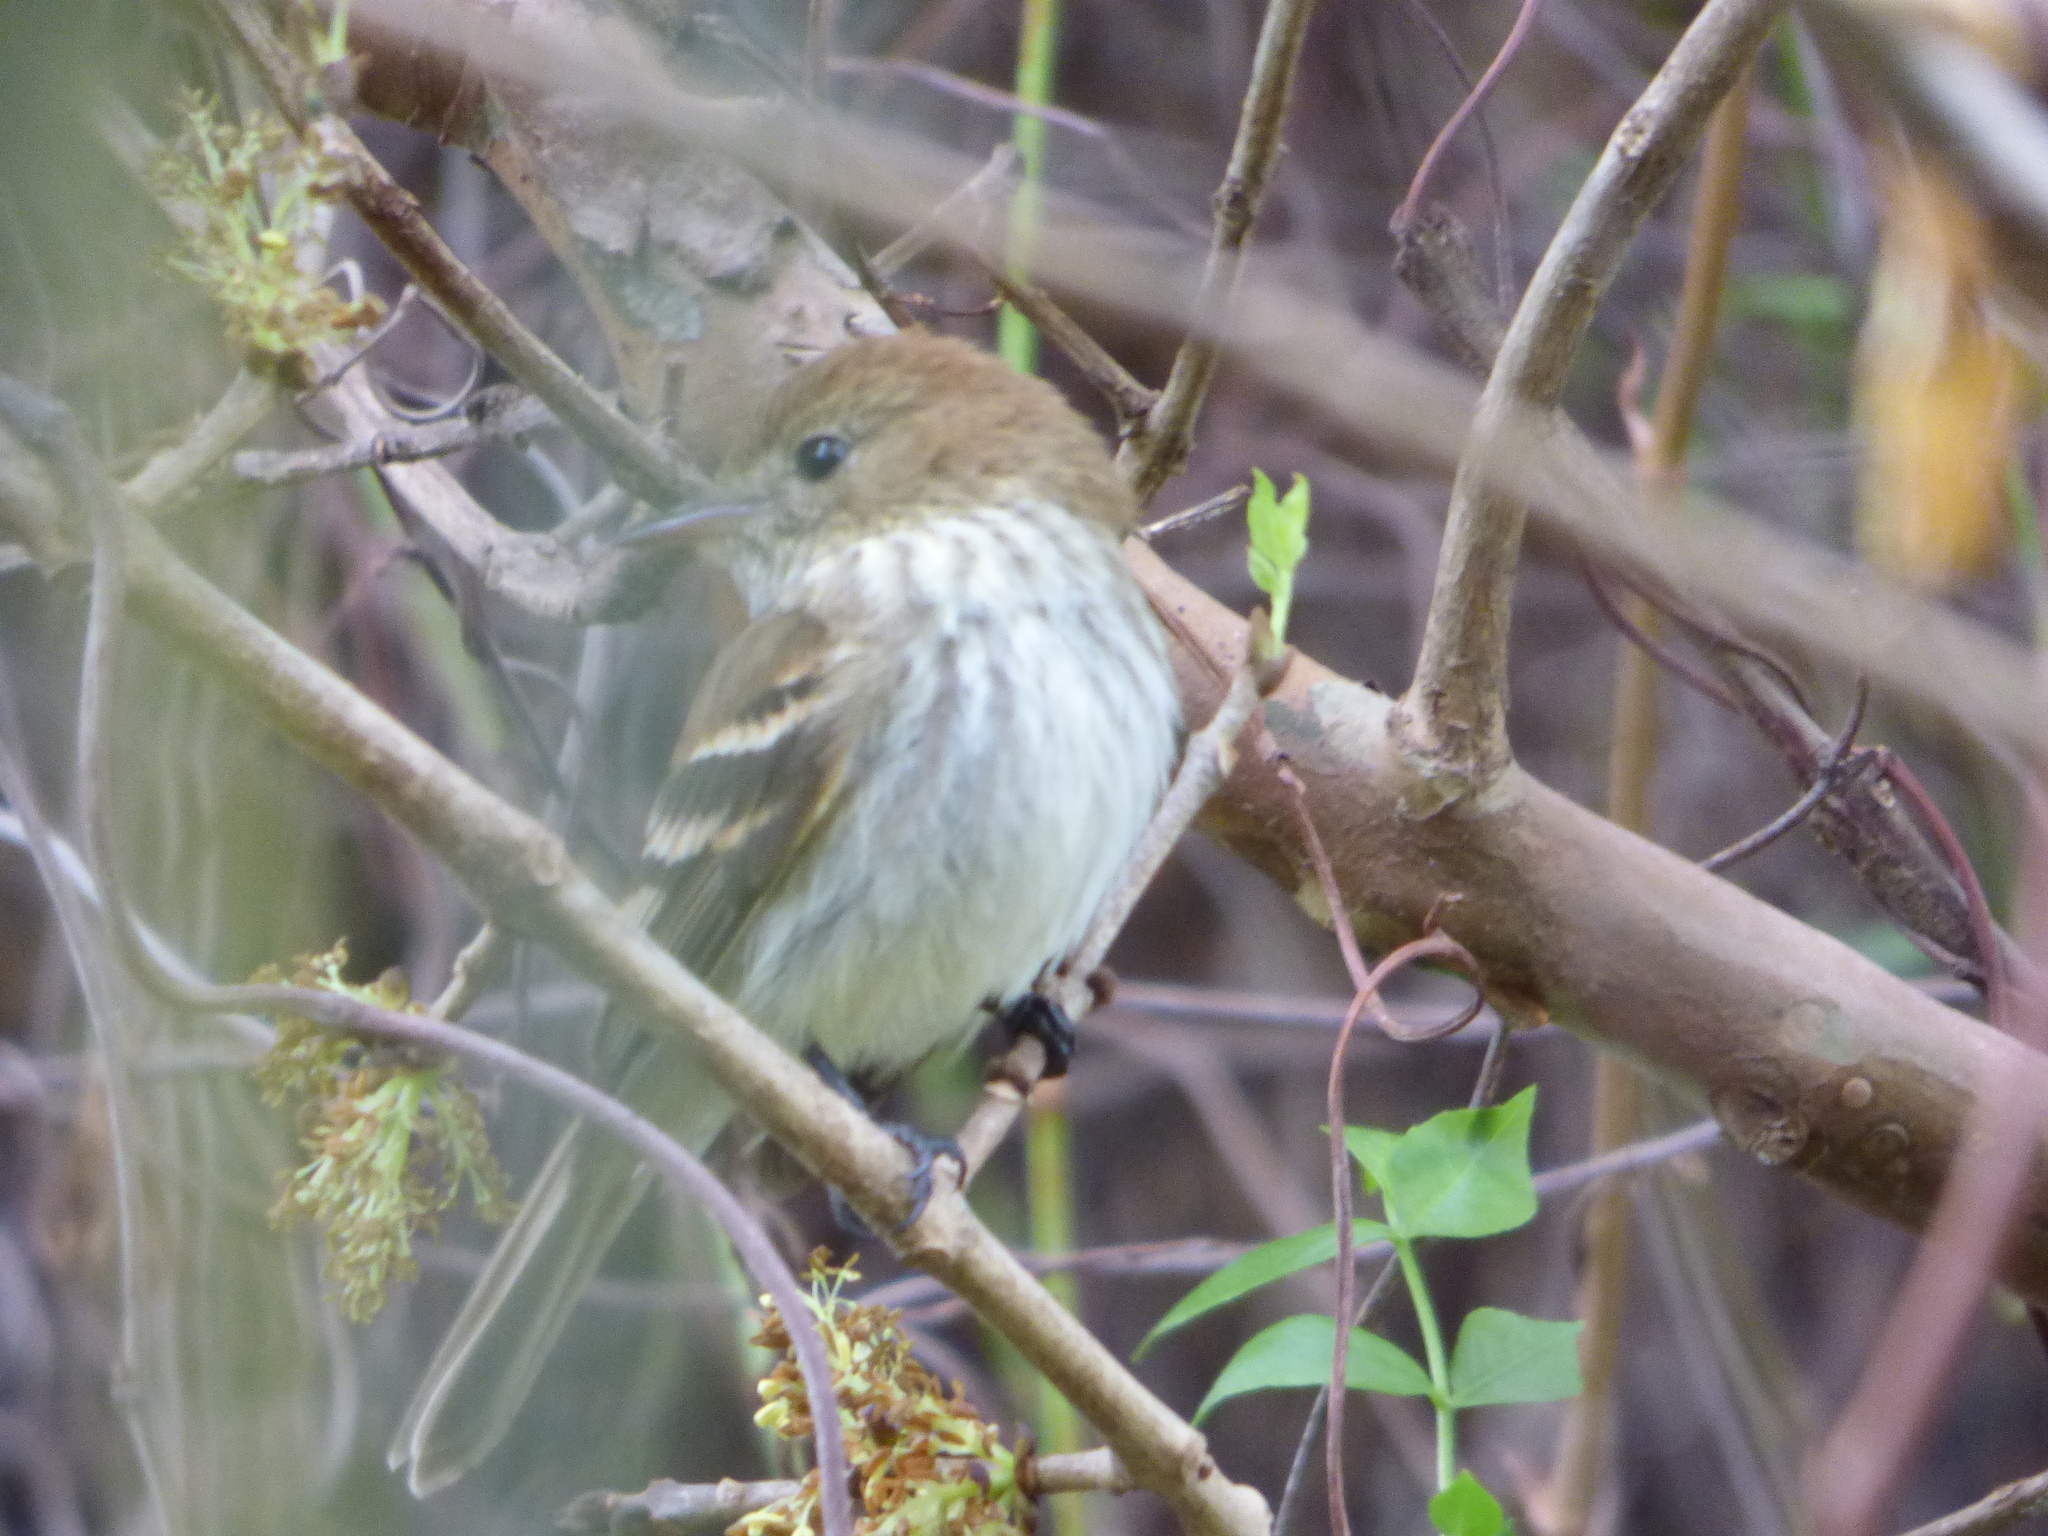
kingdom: Animalia
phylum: Chordata
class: Aves
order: Passeriformes
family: Tyrannidae
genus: Myiophobus
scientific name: Myiophobus fasciatus
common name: Bran-colored flycatcher
